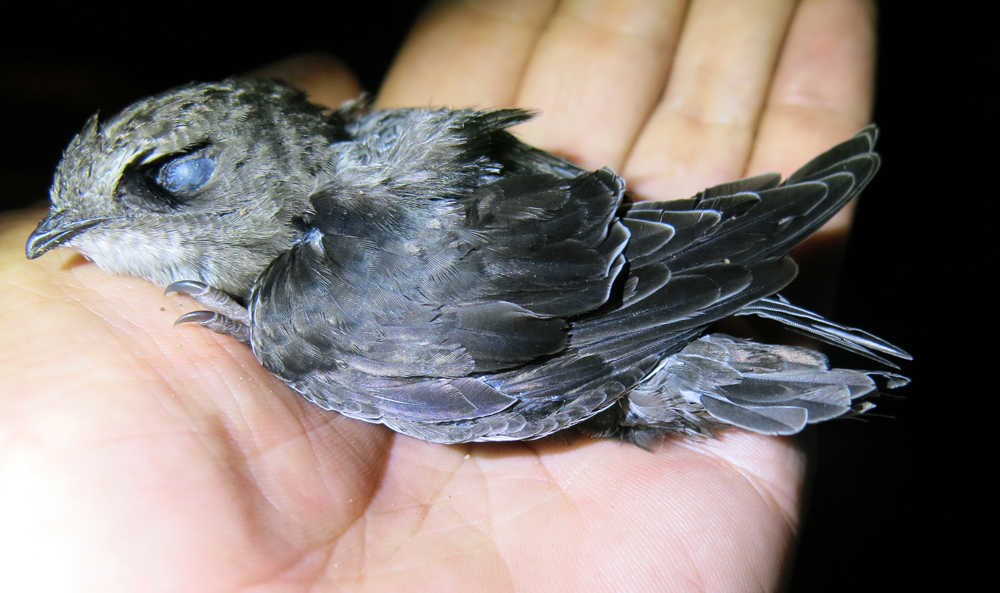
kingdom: Animalia
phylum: Chordata
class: Aves
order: Apodiformes
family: Apodidae
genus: Apus
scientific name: Apus affinis
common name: Little swift
